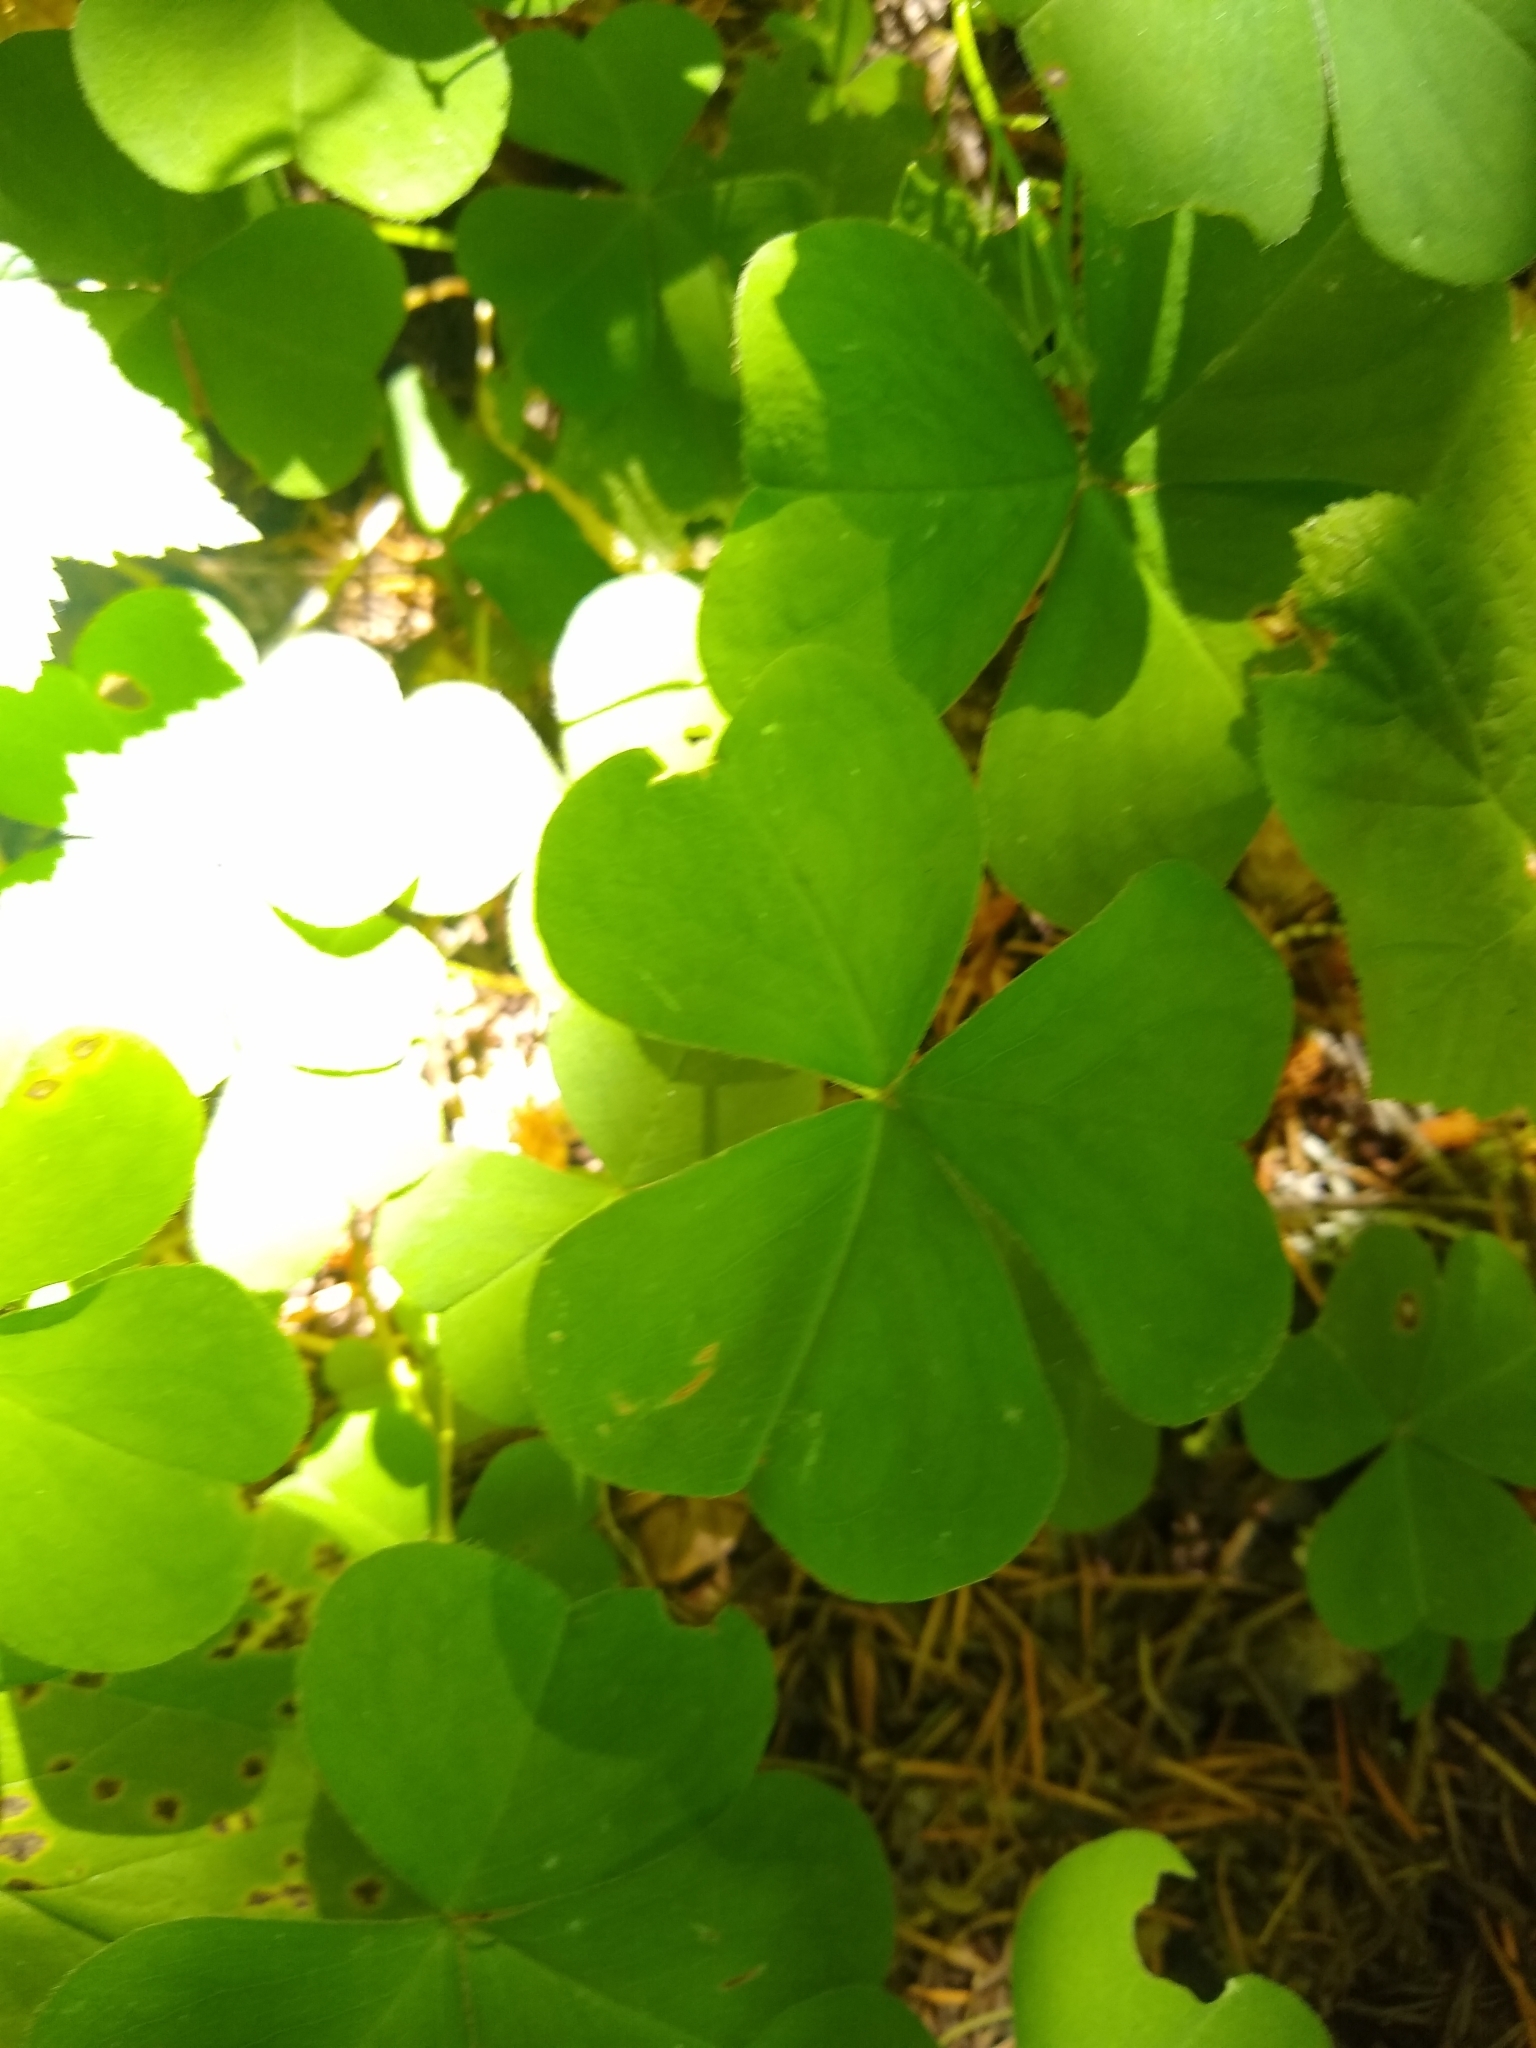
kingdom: Plantae
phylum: Tracheophyta
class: Magnoliopsida
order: Oxalidales
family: Oxalidaceae
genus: Oxalis
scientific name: Oxalis
